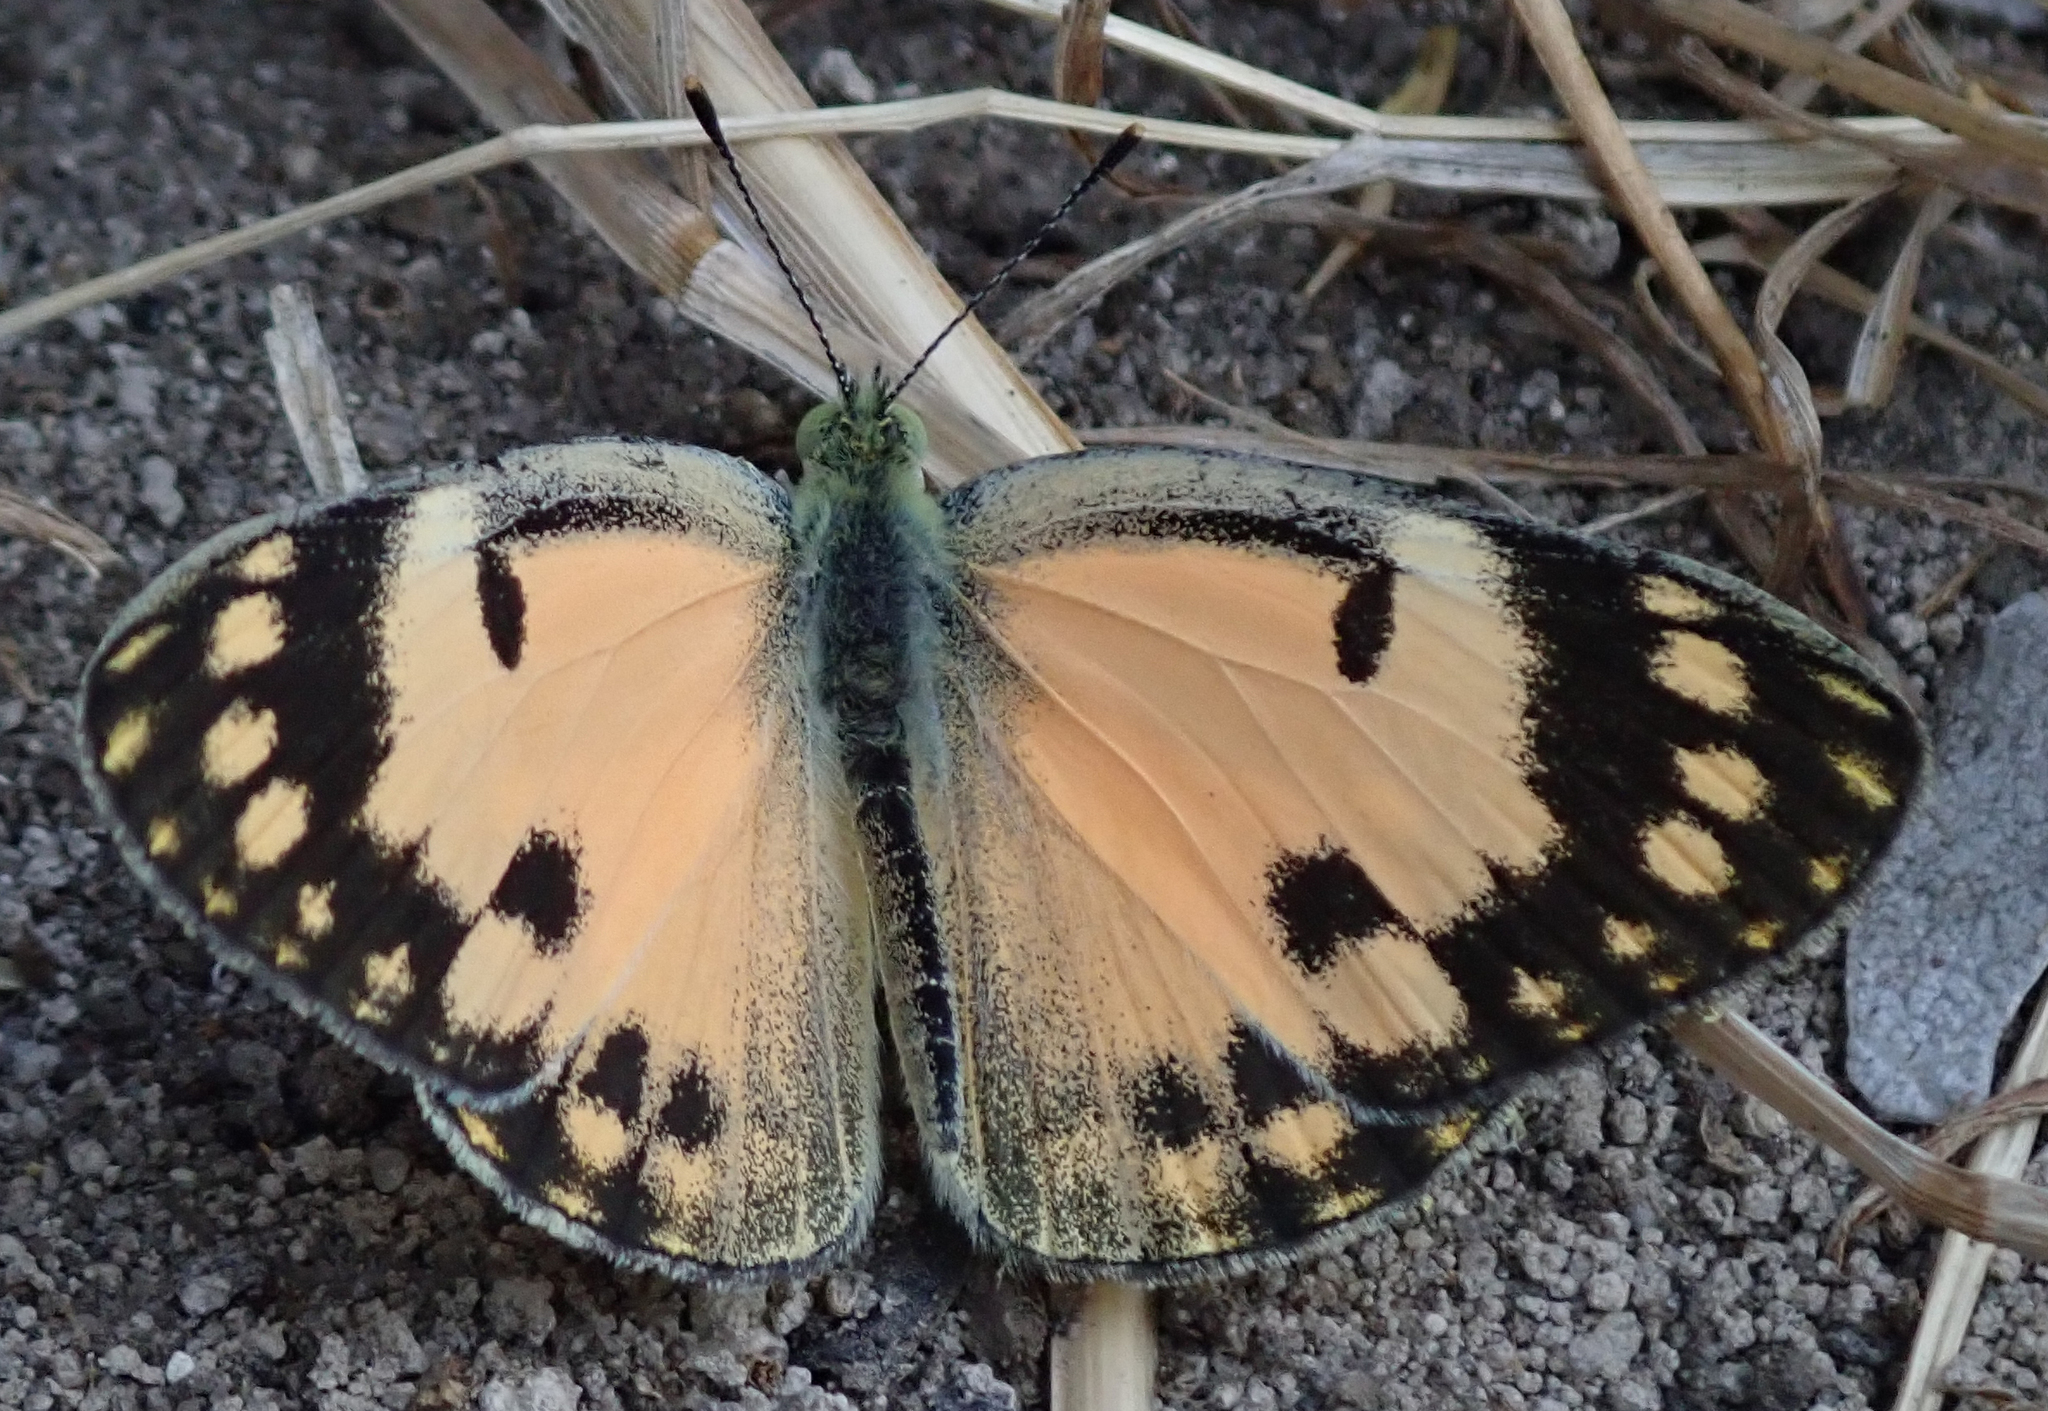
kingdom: Animalia
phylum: Arthropoda
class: Insecta
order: Lepidoptera
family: Pieridae
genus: Colotis
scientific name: Colotis amata
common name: Small salmon arab
